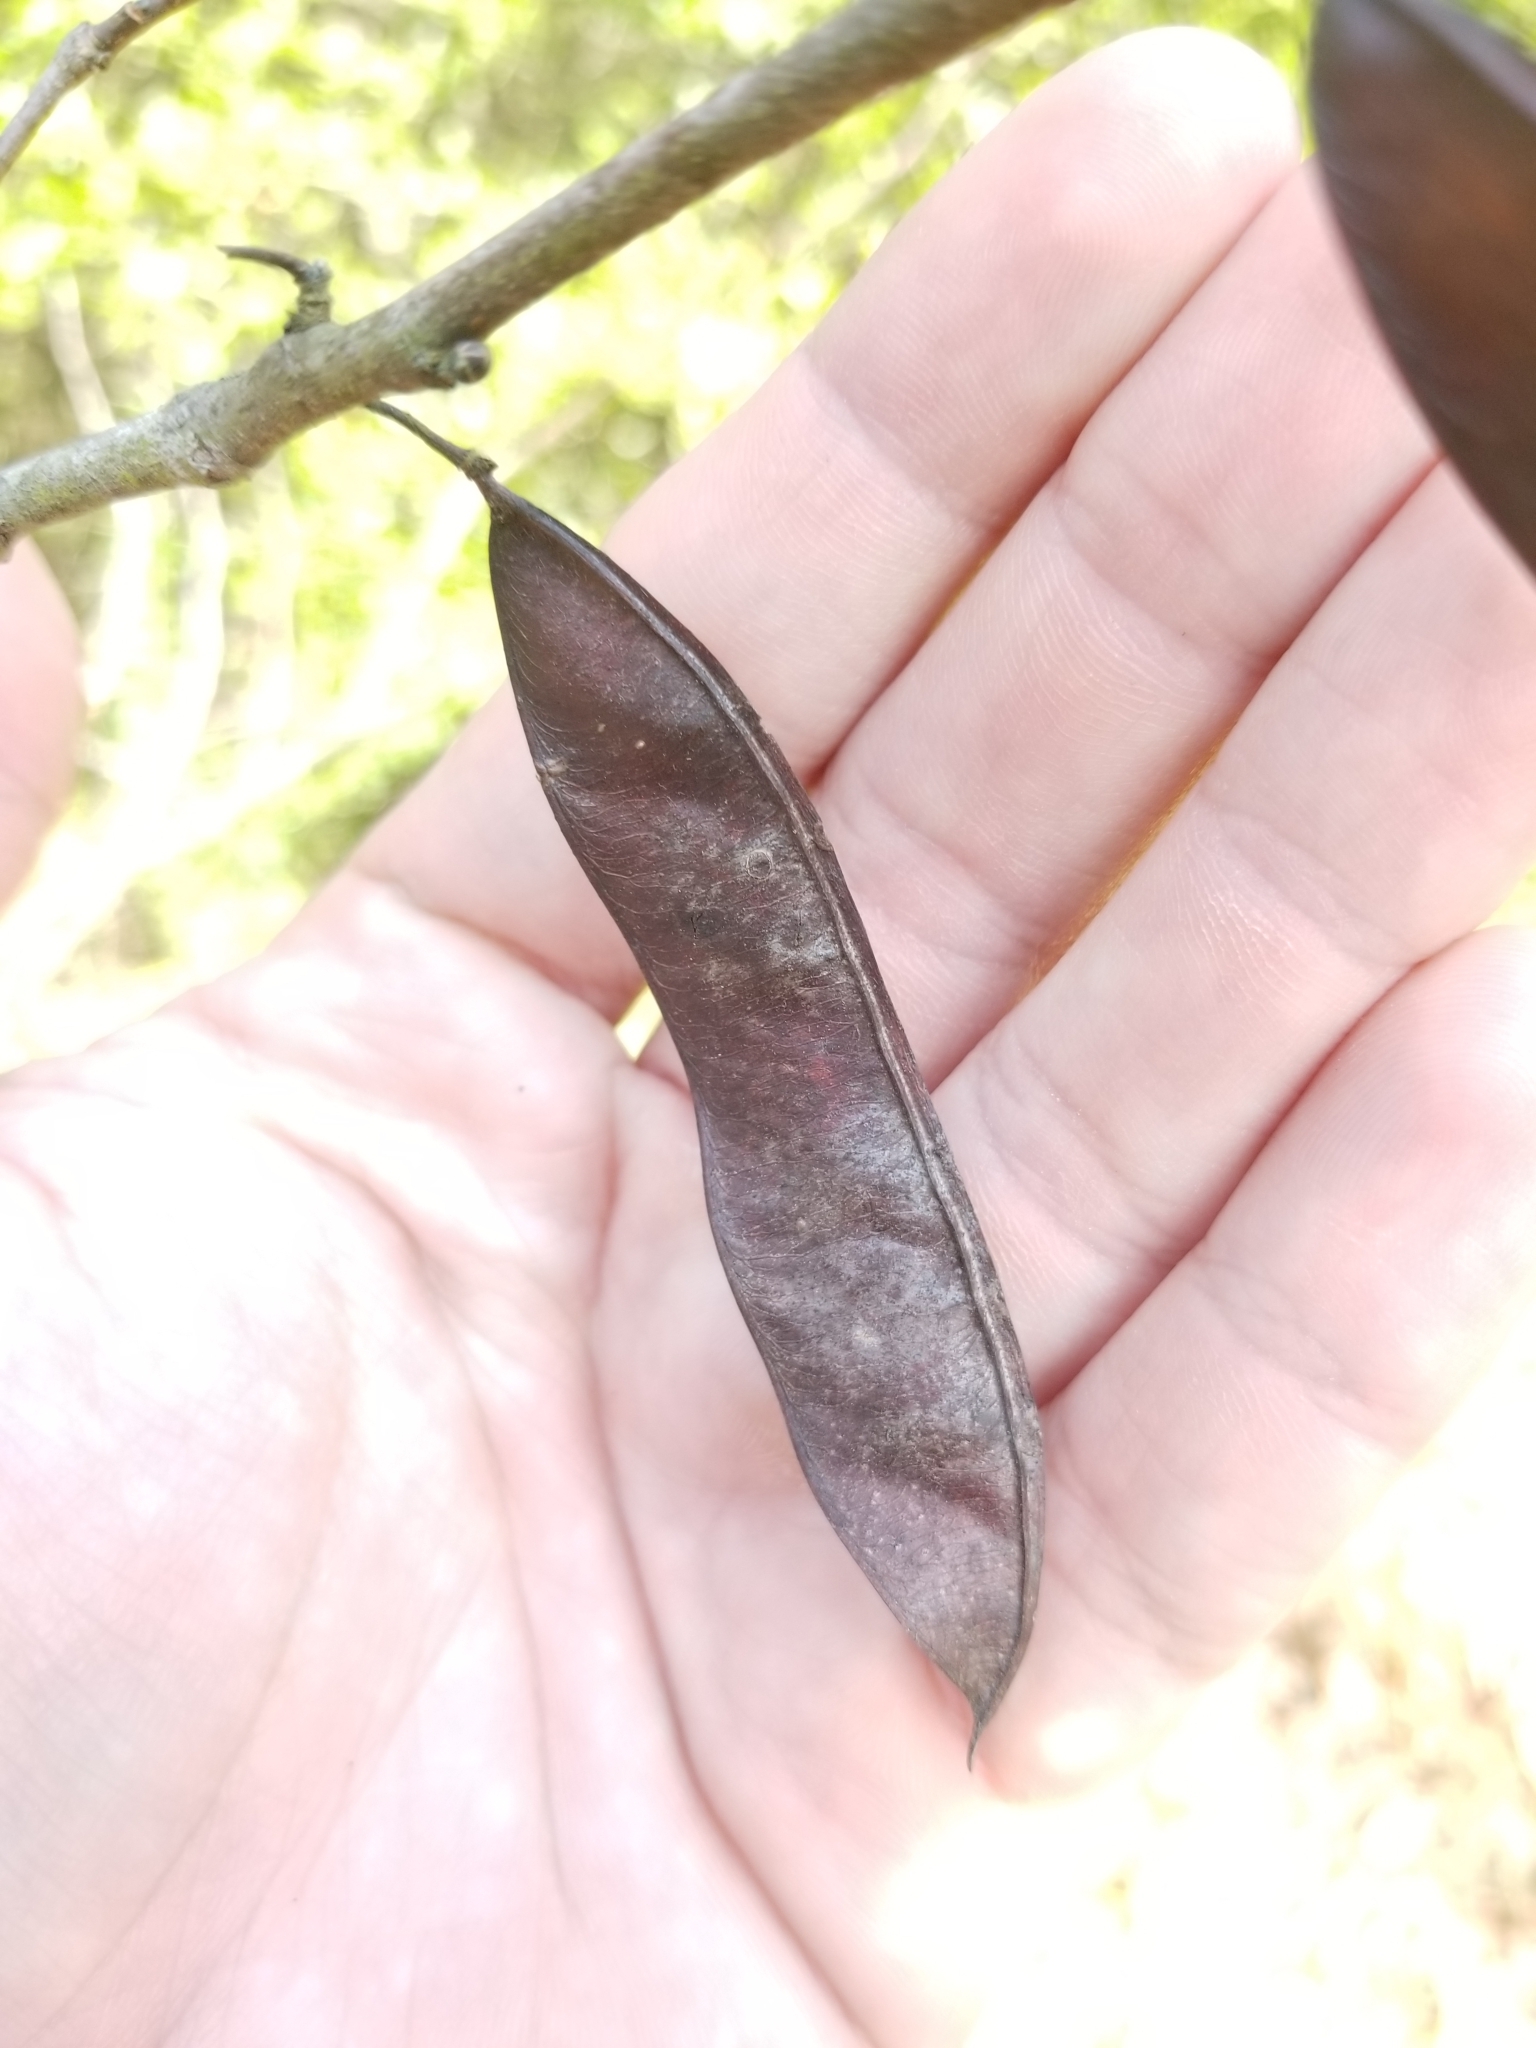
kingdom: Plantae
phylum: Tracheophyta
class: Magnoliopsida
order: Fabales
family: Fabaceae
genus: Cercis
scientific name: Cercis canadensis
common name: Eastern redbud
